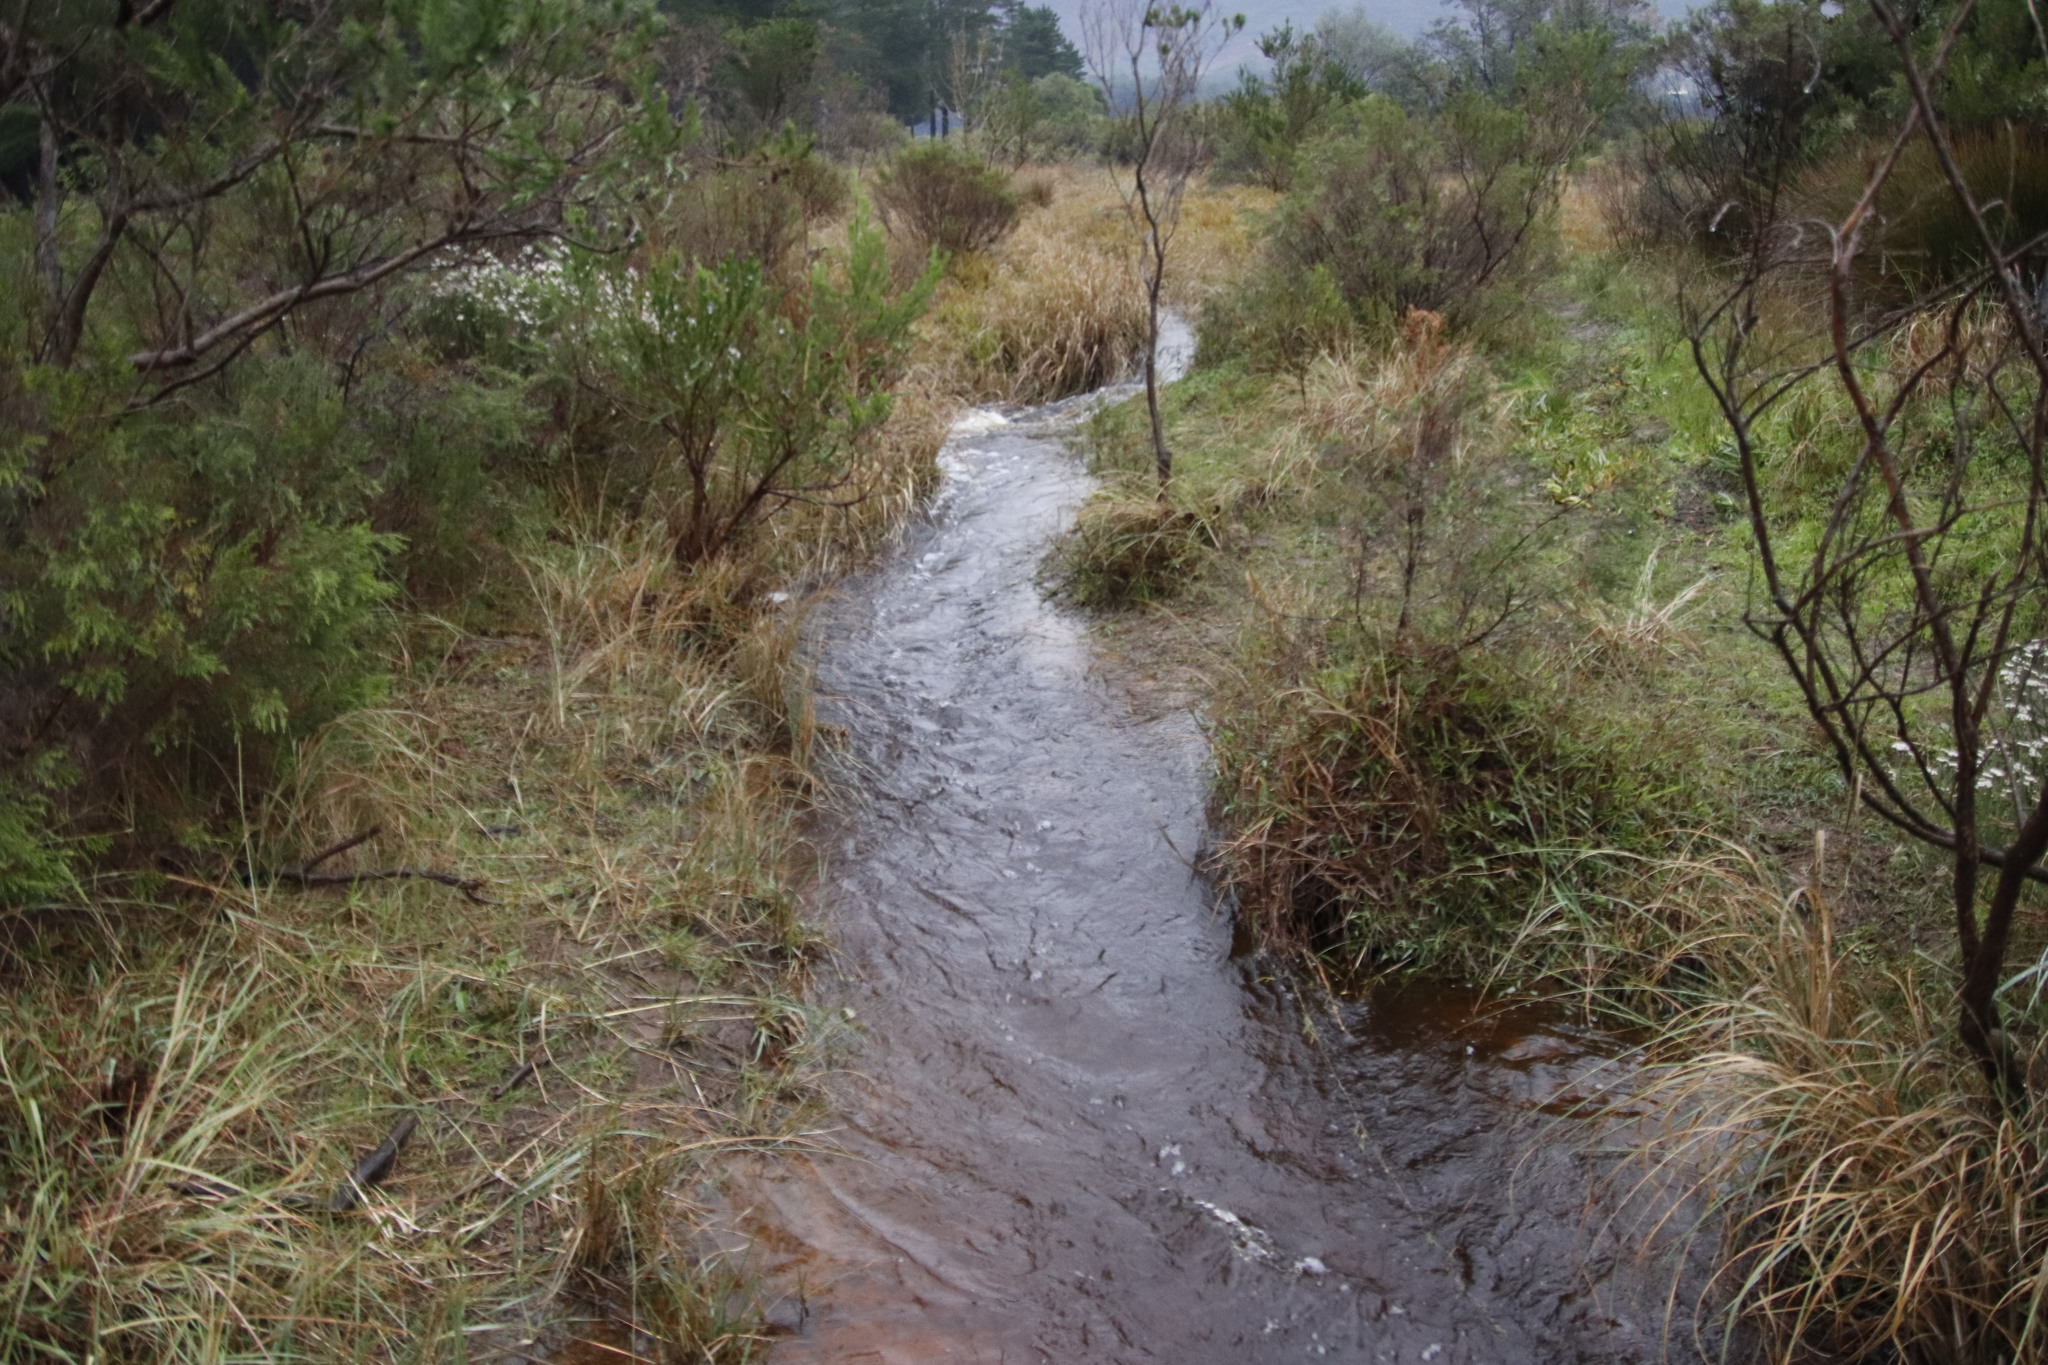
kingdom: Plantae
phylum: Tracheophyta
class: Magnoliopsida
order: Fabales
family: Fabaceae
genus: Psoralea
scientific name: Psoralea pinnata
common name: African scurfpea
